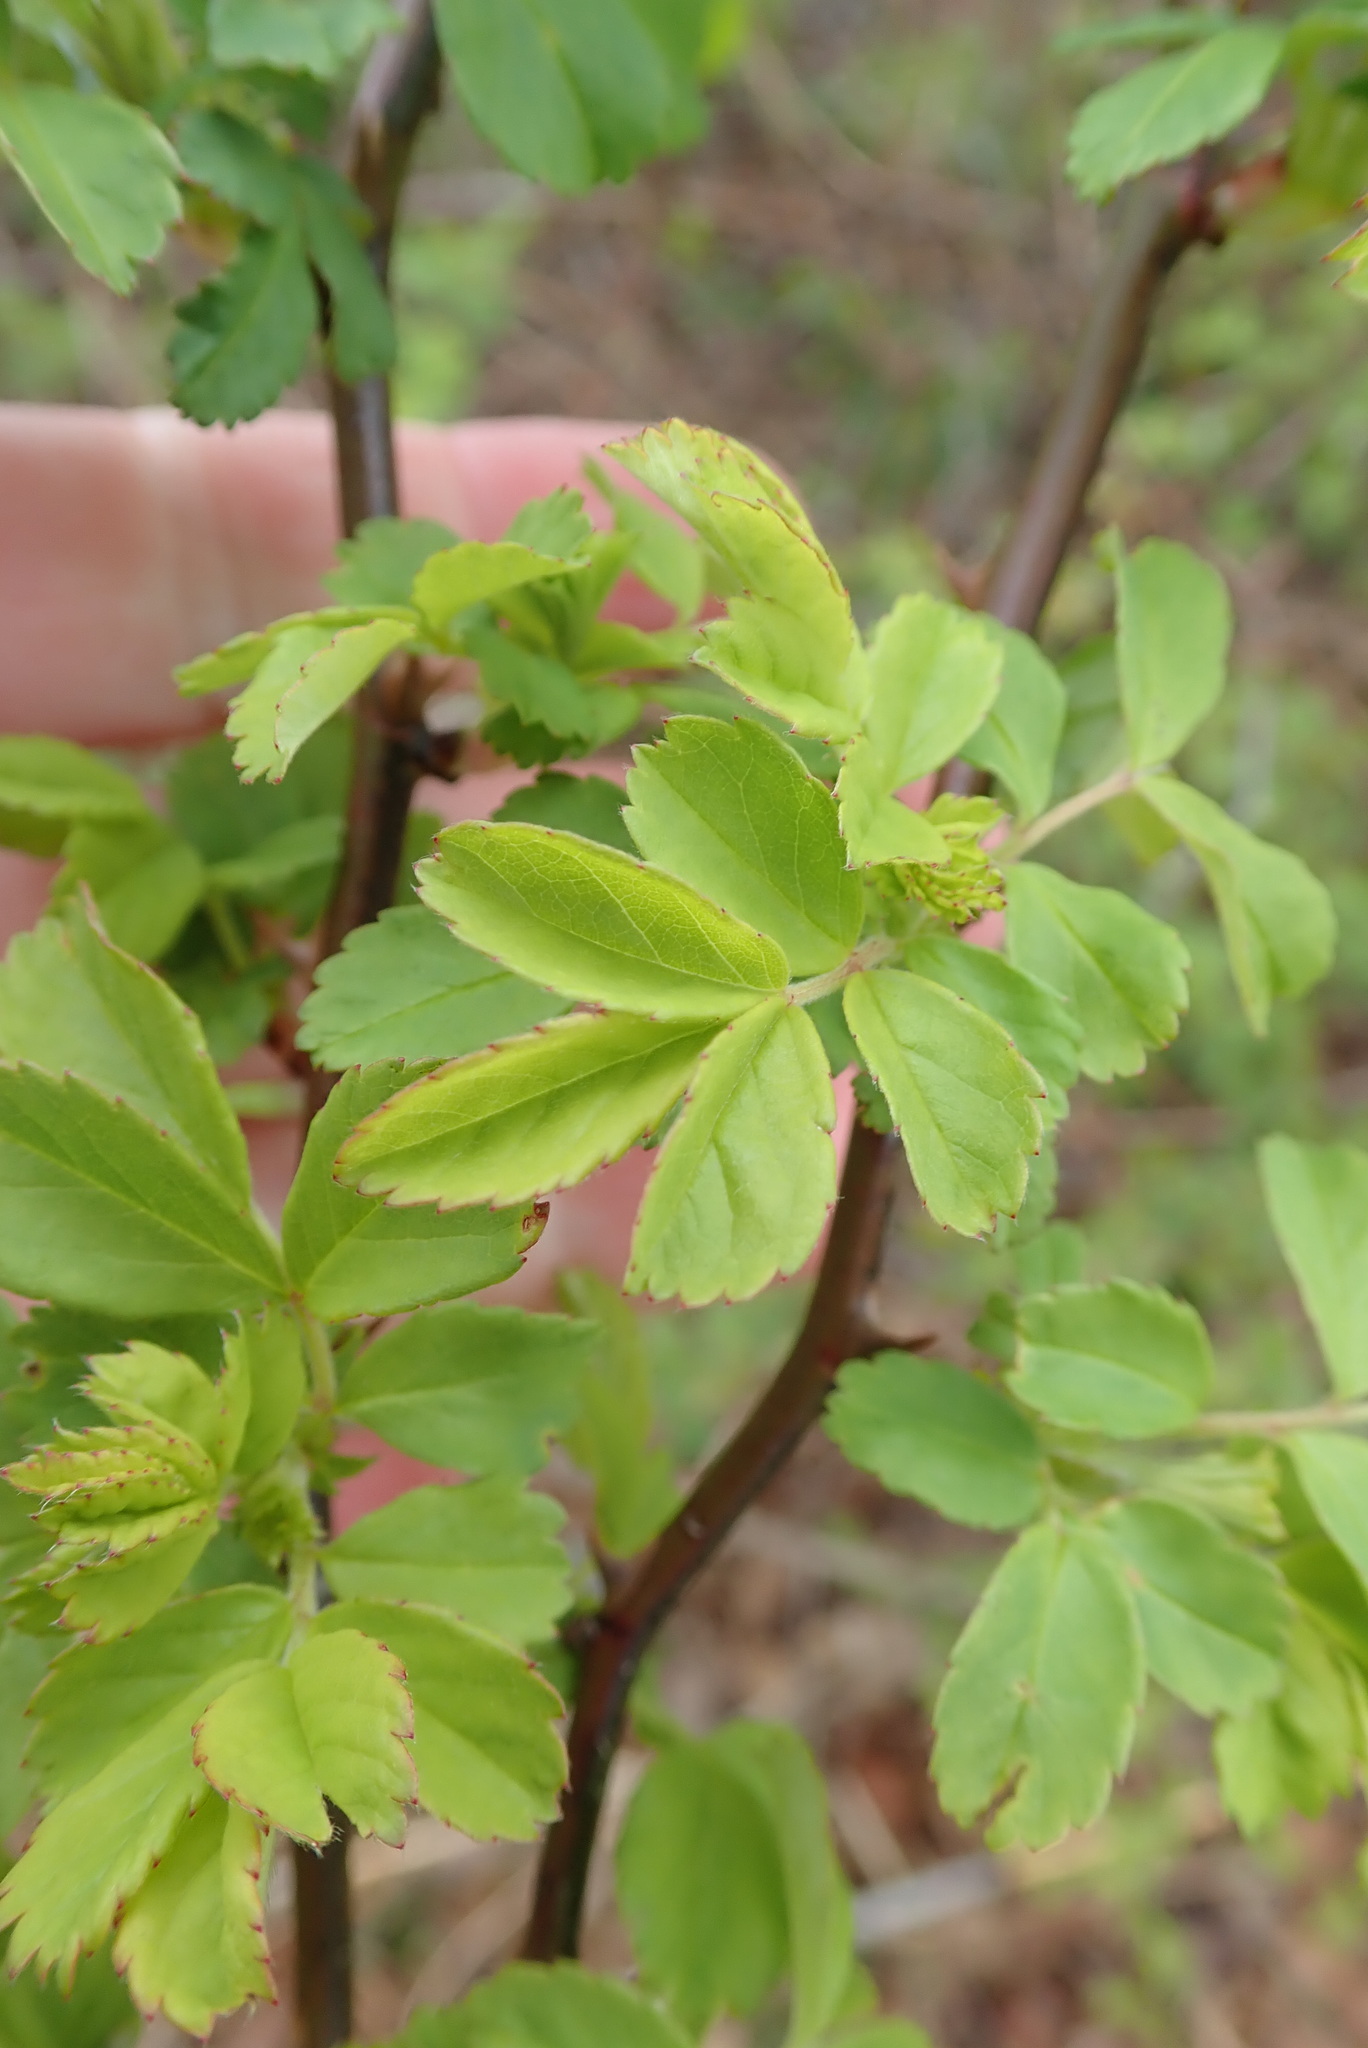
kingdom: Plantae
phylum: Tracheophyta
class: Magnoliopsida
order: Rosales
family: Rosaceae
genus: Rosa
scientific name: Rosa multiflora
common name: Multiflora rose
